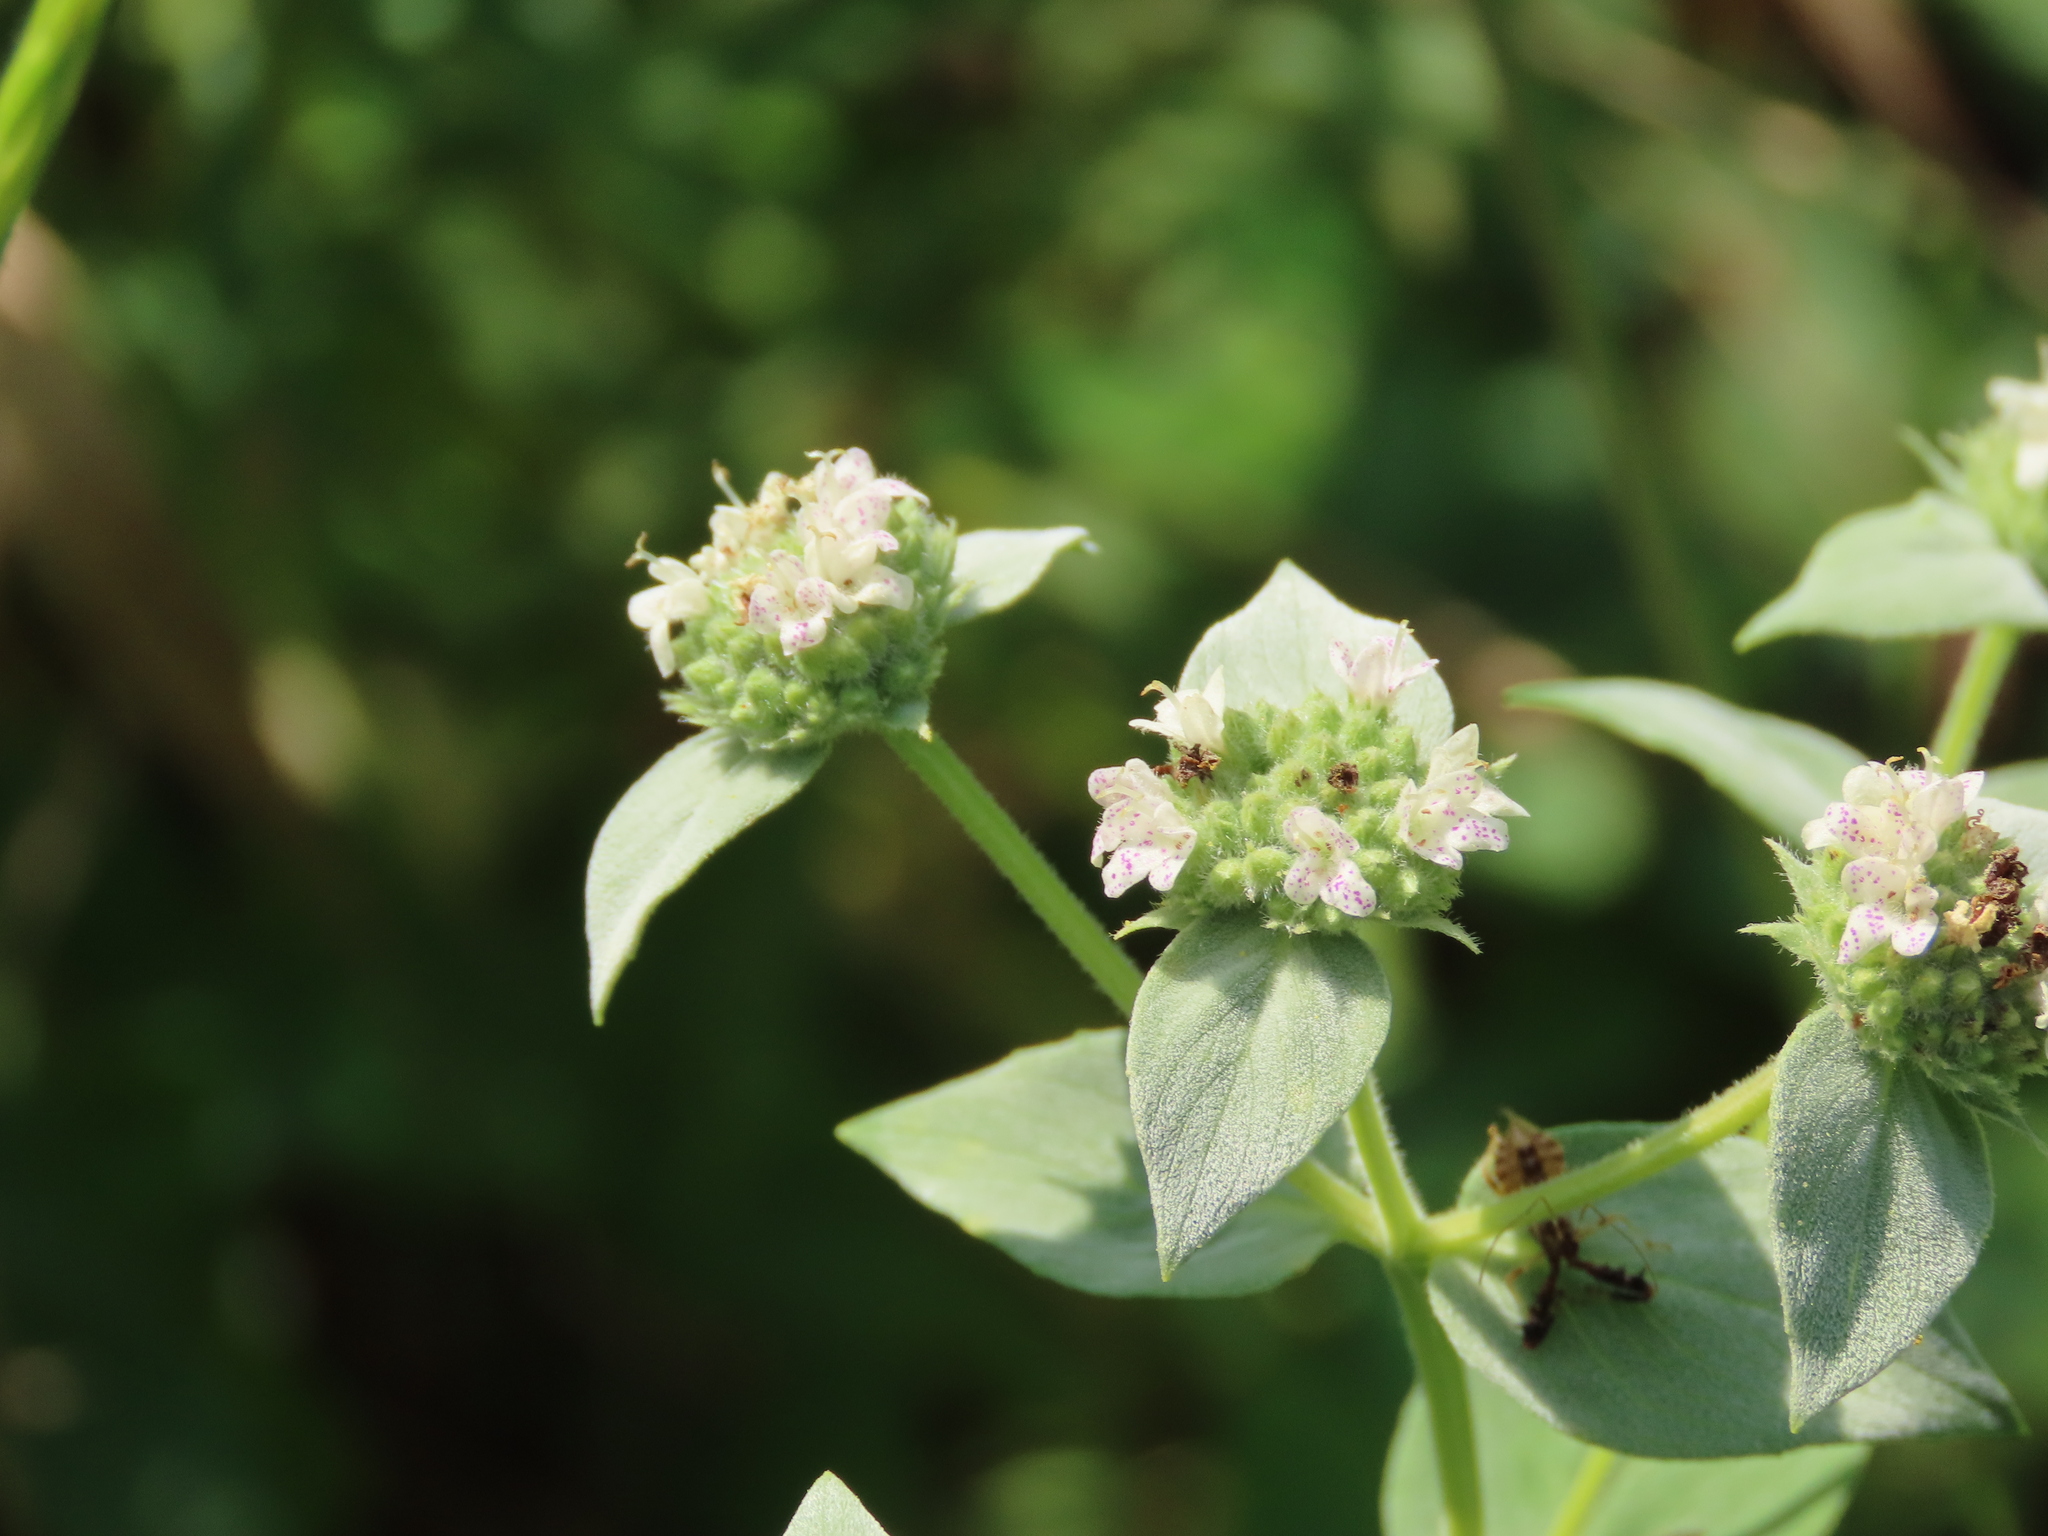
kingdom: Plantae
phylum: Tracheophyta
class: Magnoliopsida
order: Lamiales
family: Lamiaceae
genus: Pycnanthemum
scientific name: Pycnanthemum muticum
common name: Blunt mountain-mint
